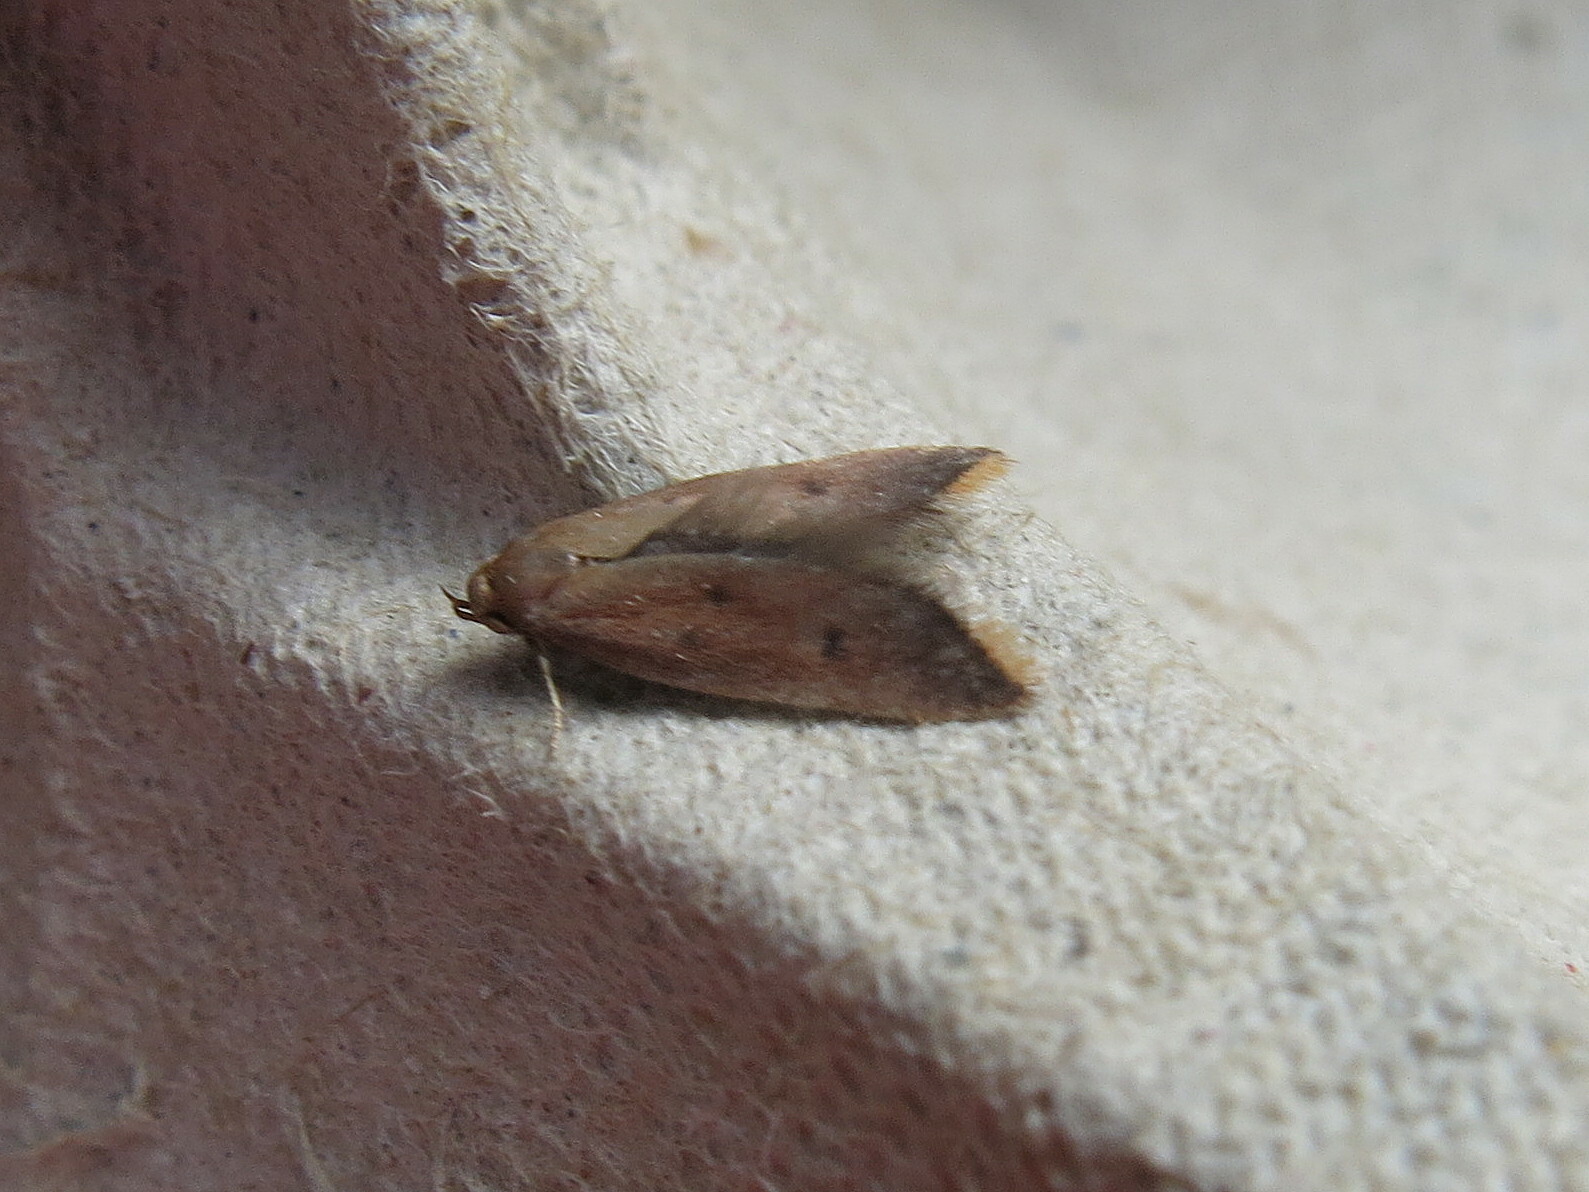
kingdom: Animalia
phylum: Arthropoda
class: Insecta
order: Lepidoptera
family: Oecophoridae
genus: Tachystola
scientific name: Tachystola acroxantha
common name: Ruddy streak
